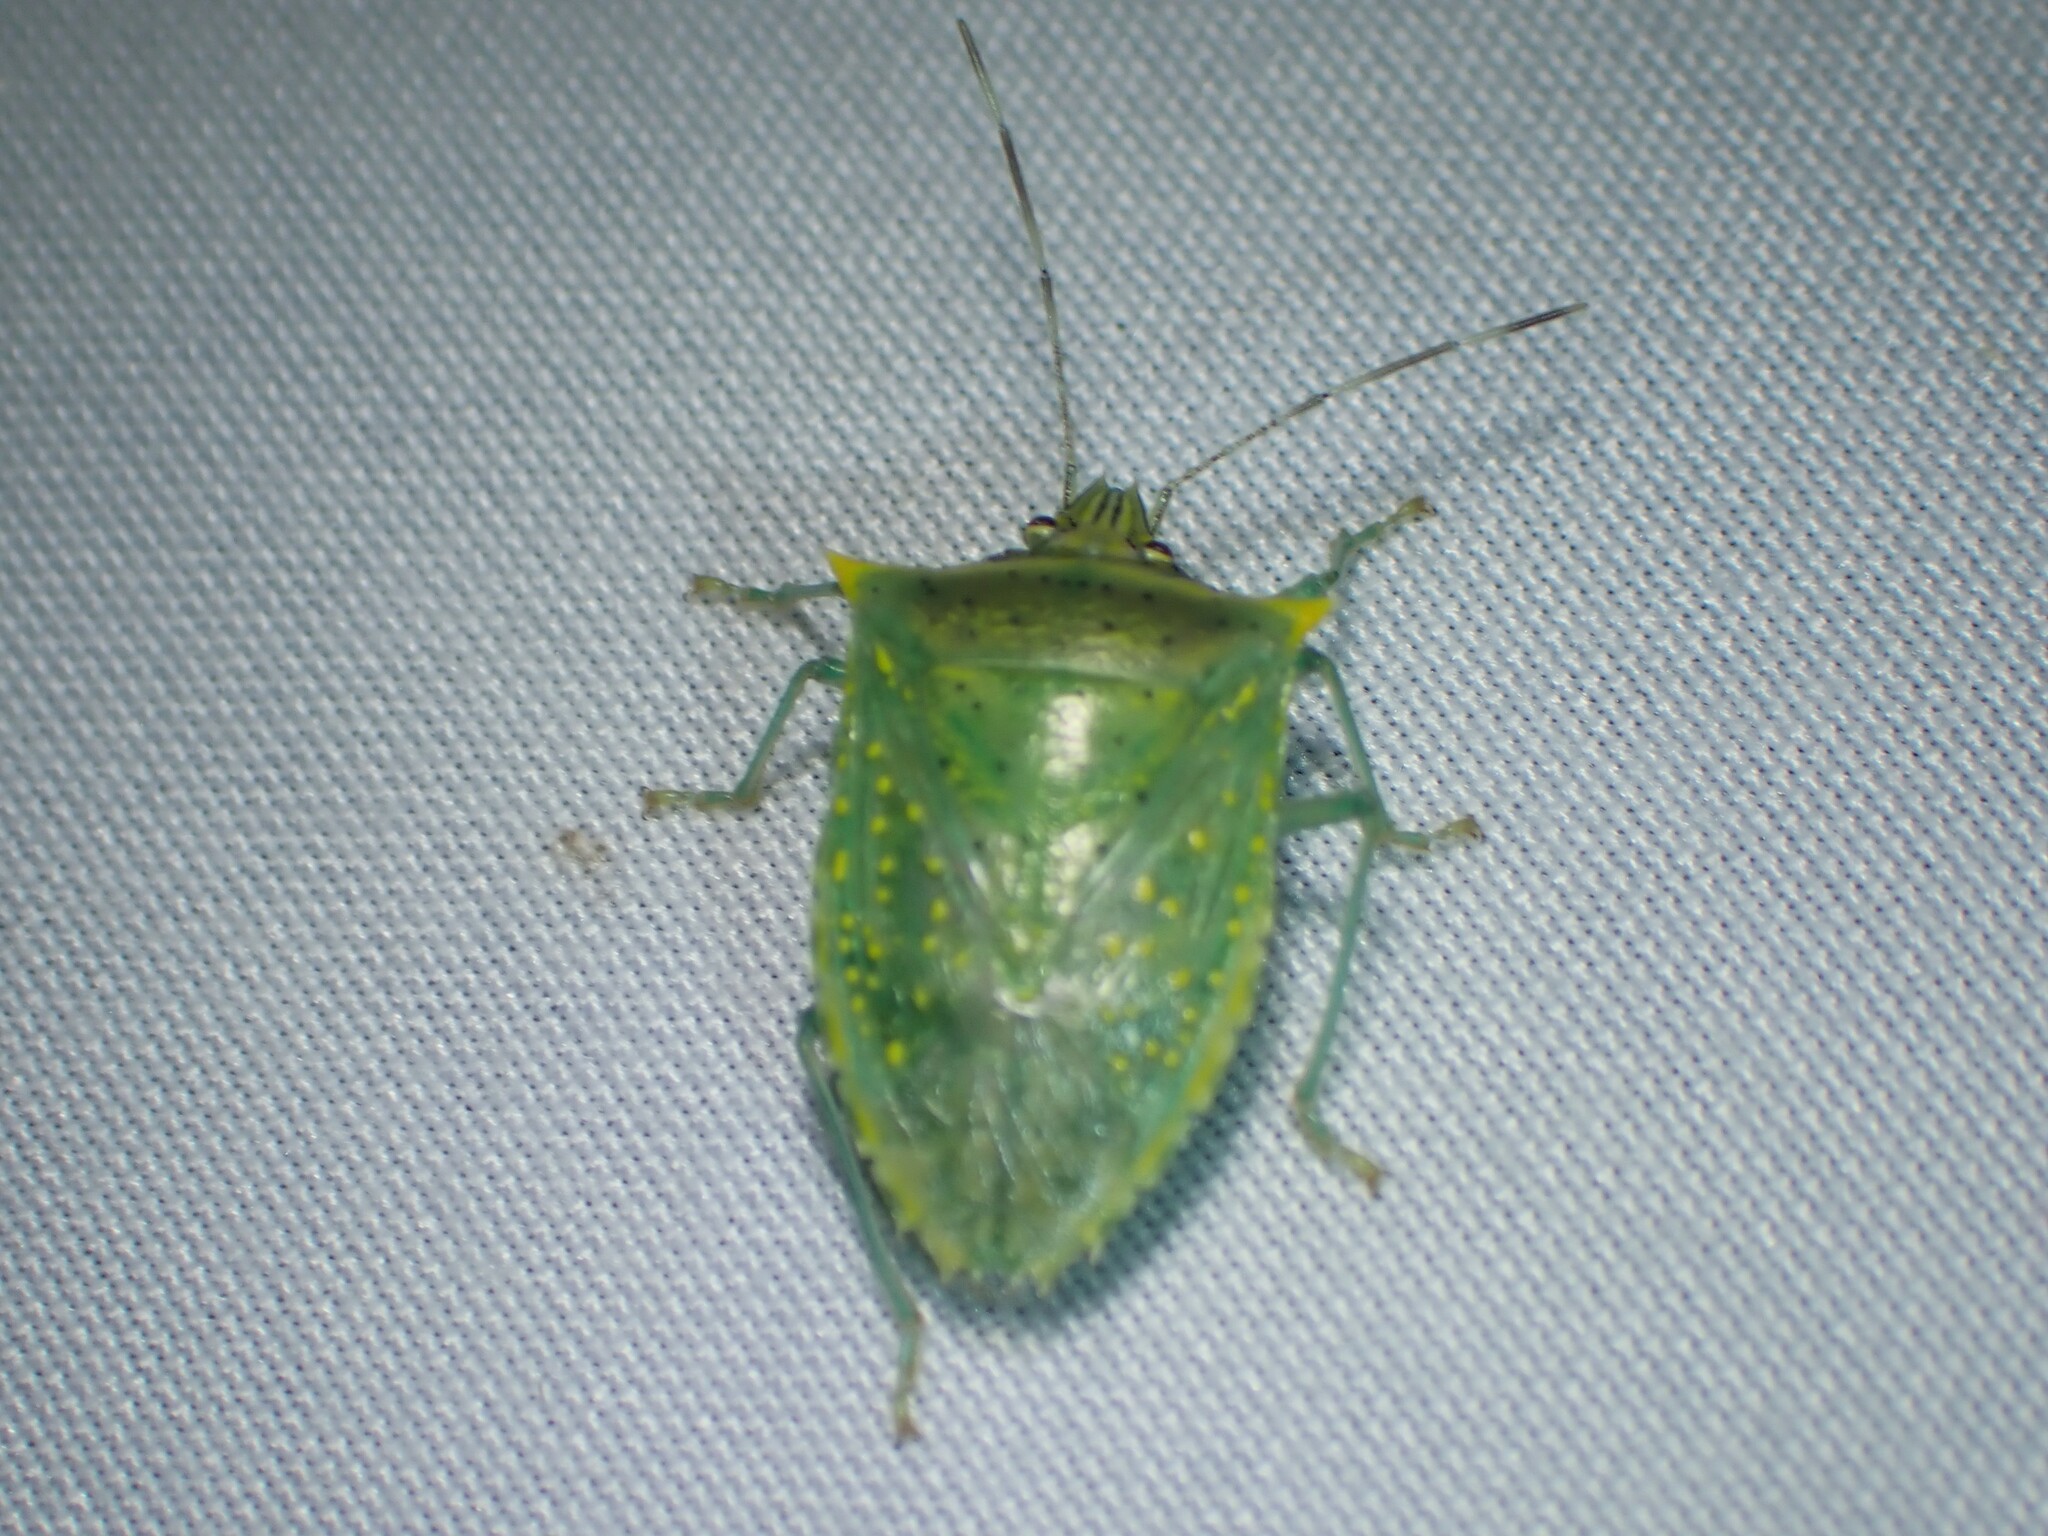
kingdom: Animalia
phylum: Arthropoda
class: Insecta
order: Hemiptera
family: Pentatomidae
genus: Arvelius
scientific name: Arvelius albopunctatus
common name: Tomato stink bug
